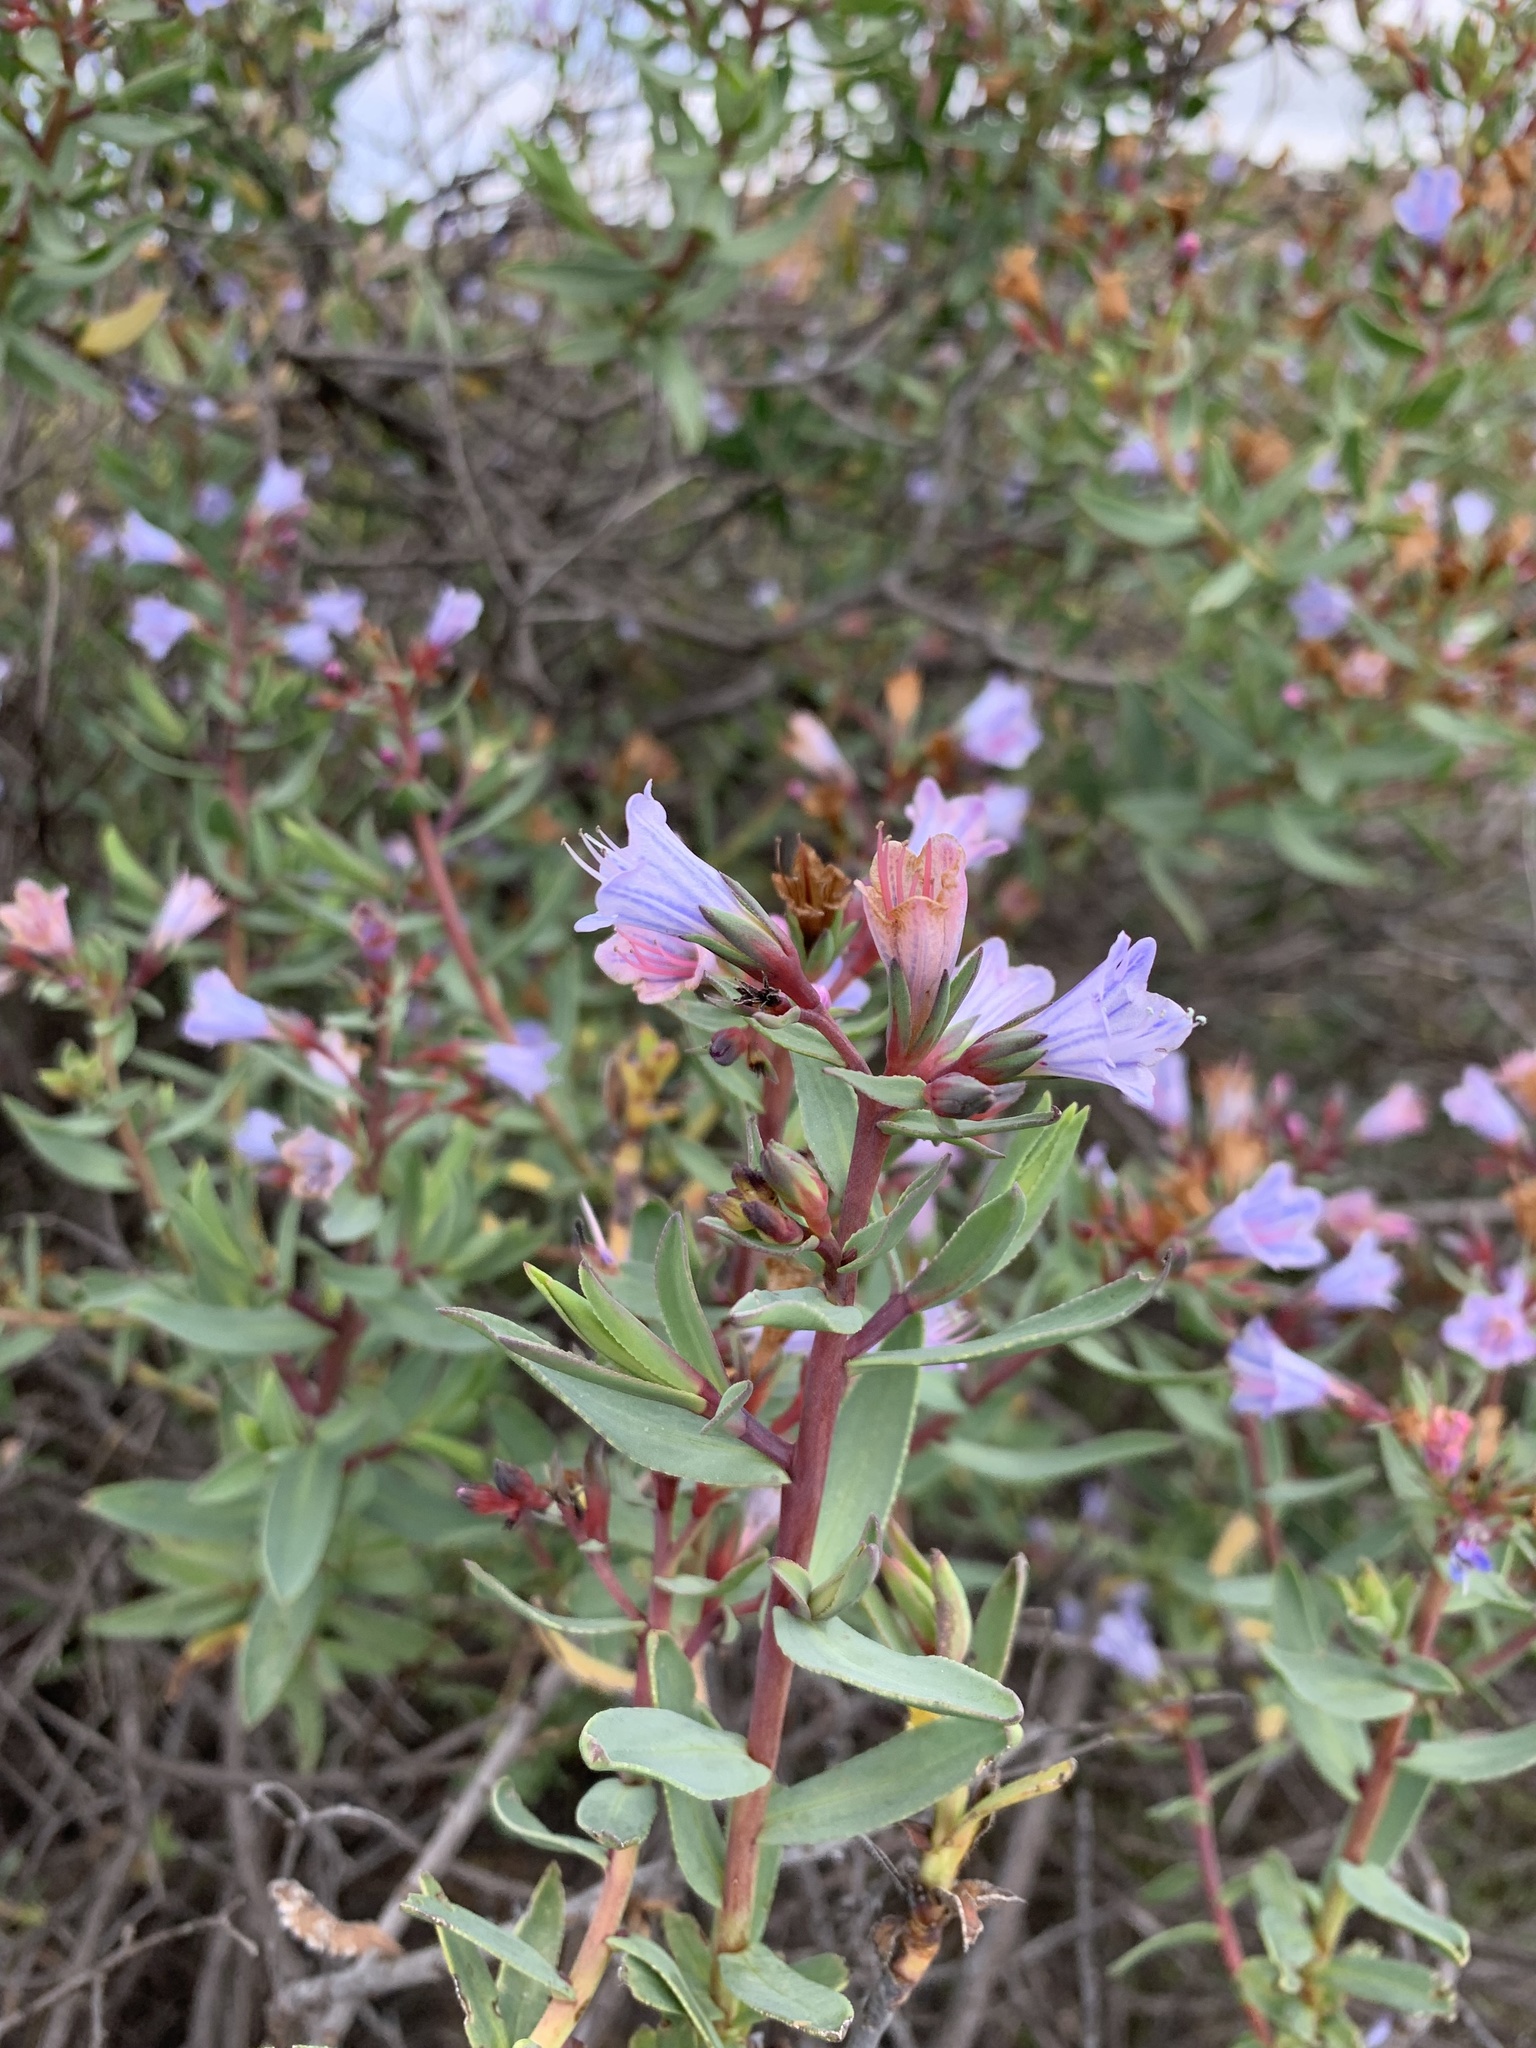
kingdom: Plantae
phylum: Tracheophyta
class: Magnoliopsida
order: Boraginales
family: Boraginaceae
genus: Lobostemon
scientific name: Lobostemon glaucophyllus
